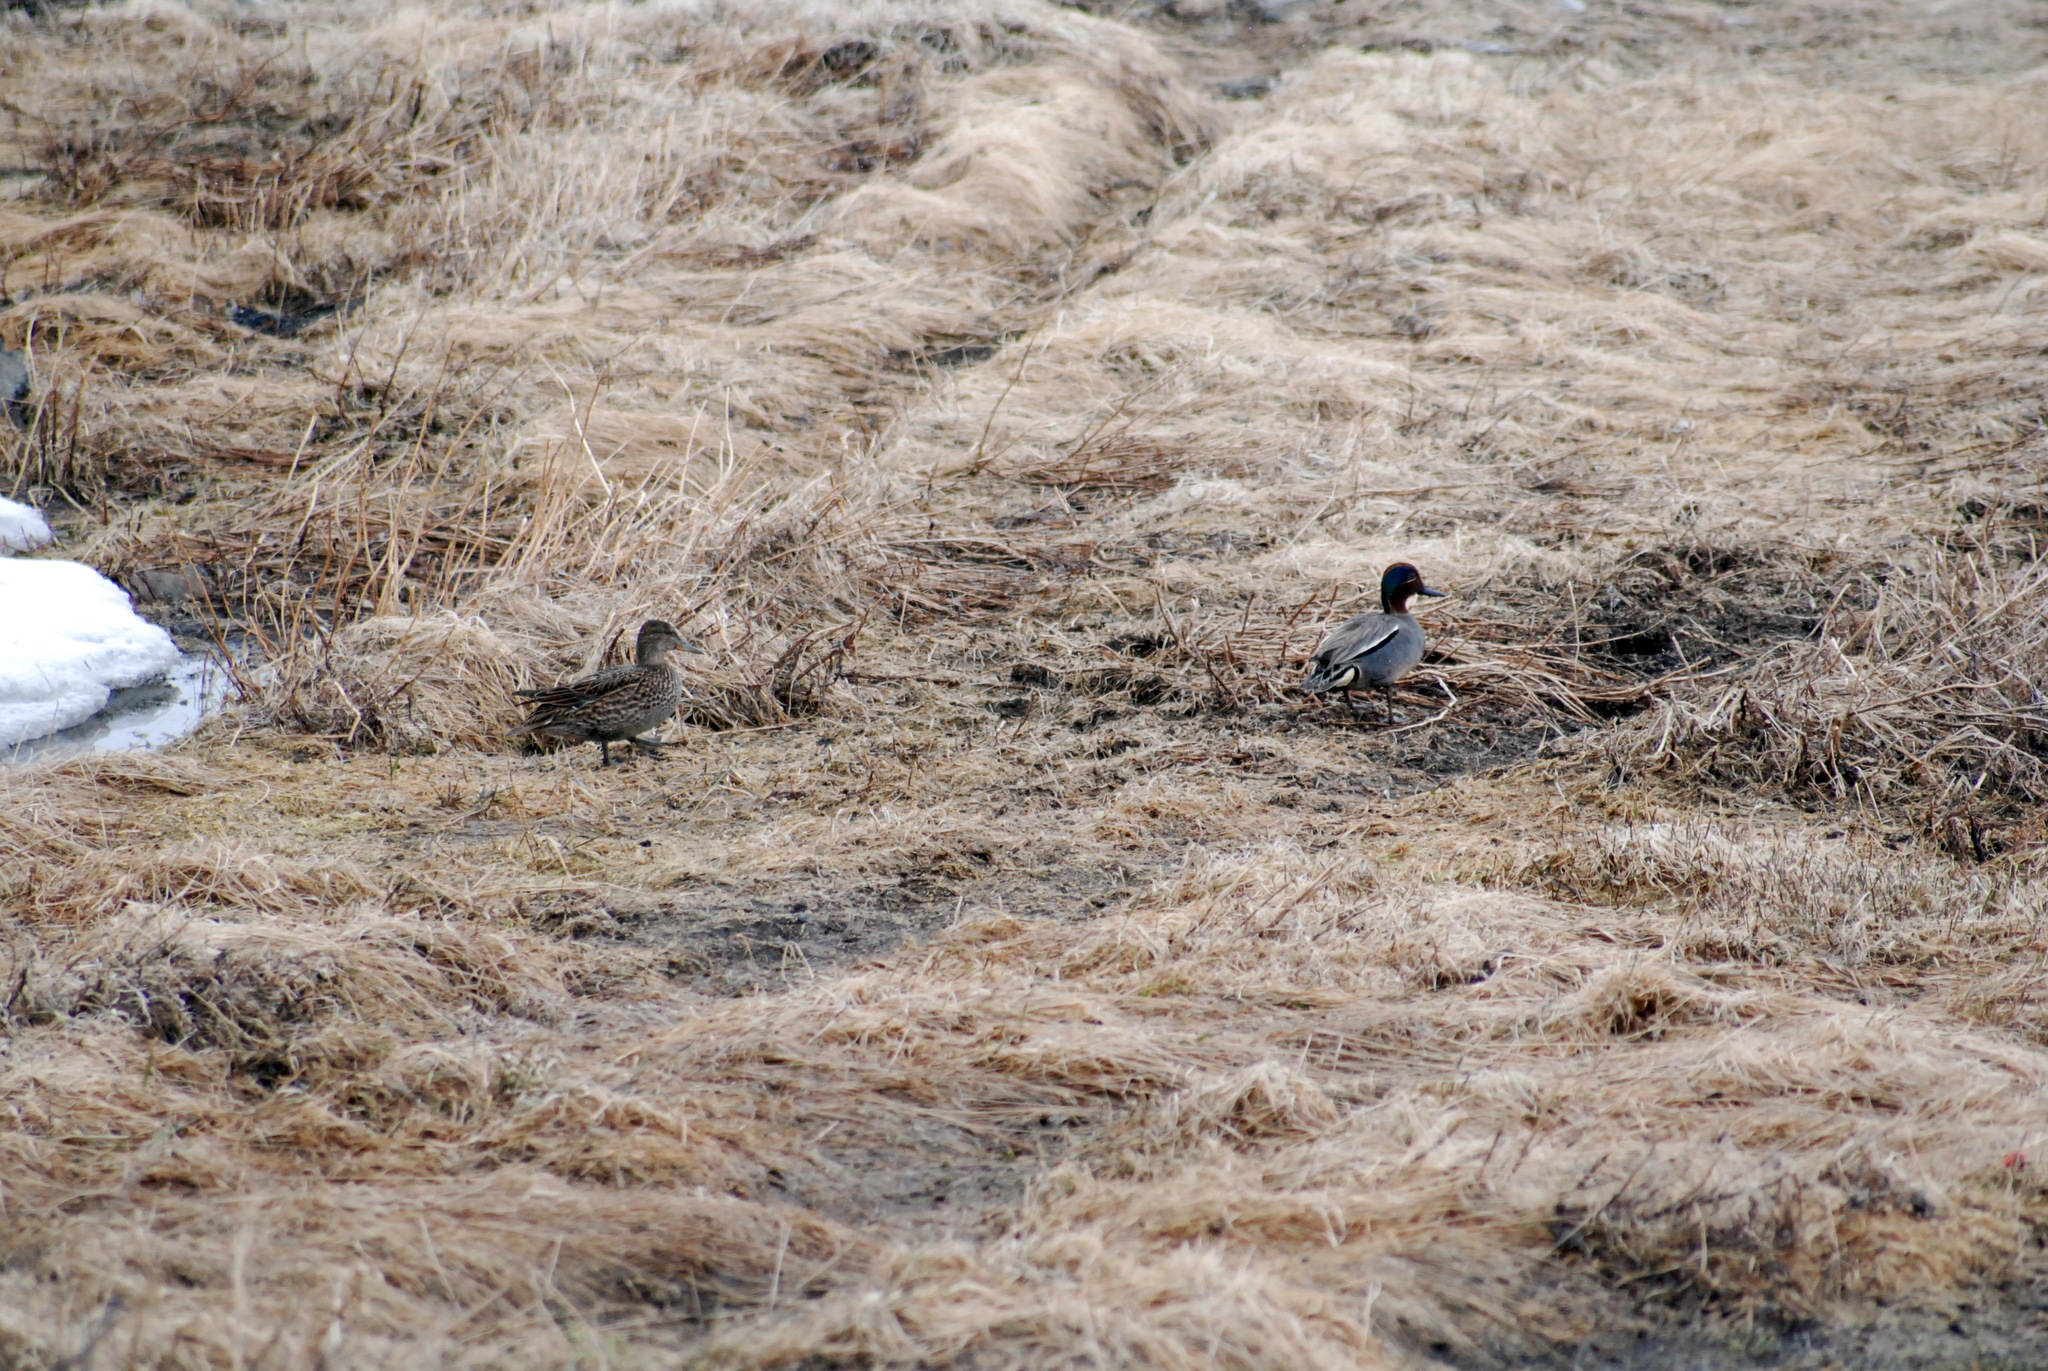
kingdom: Animalia
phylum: Chordata
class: Aves
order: Anseriformes
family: Anatidae
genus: Anas
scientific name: Anas crecca
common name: Eurasian teal
